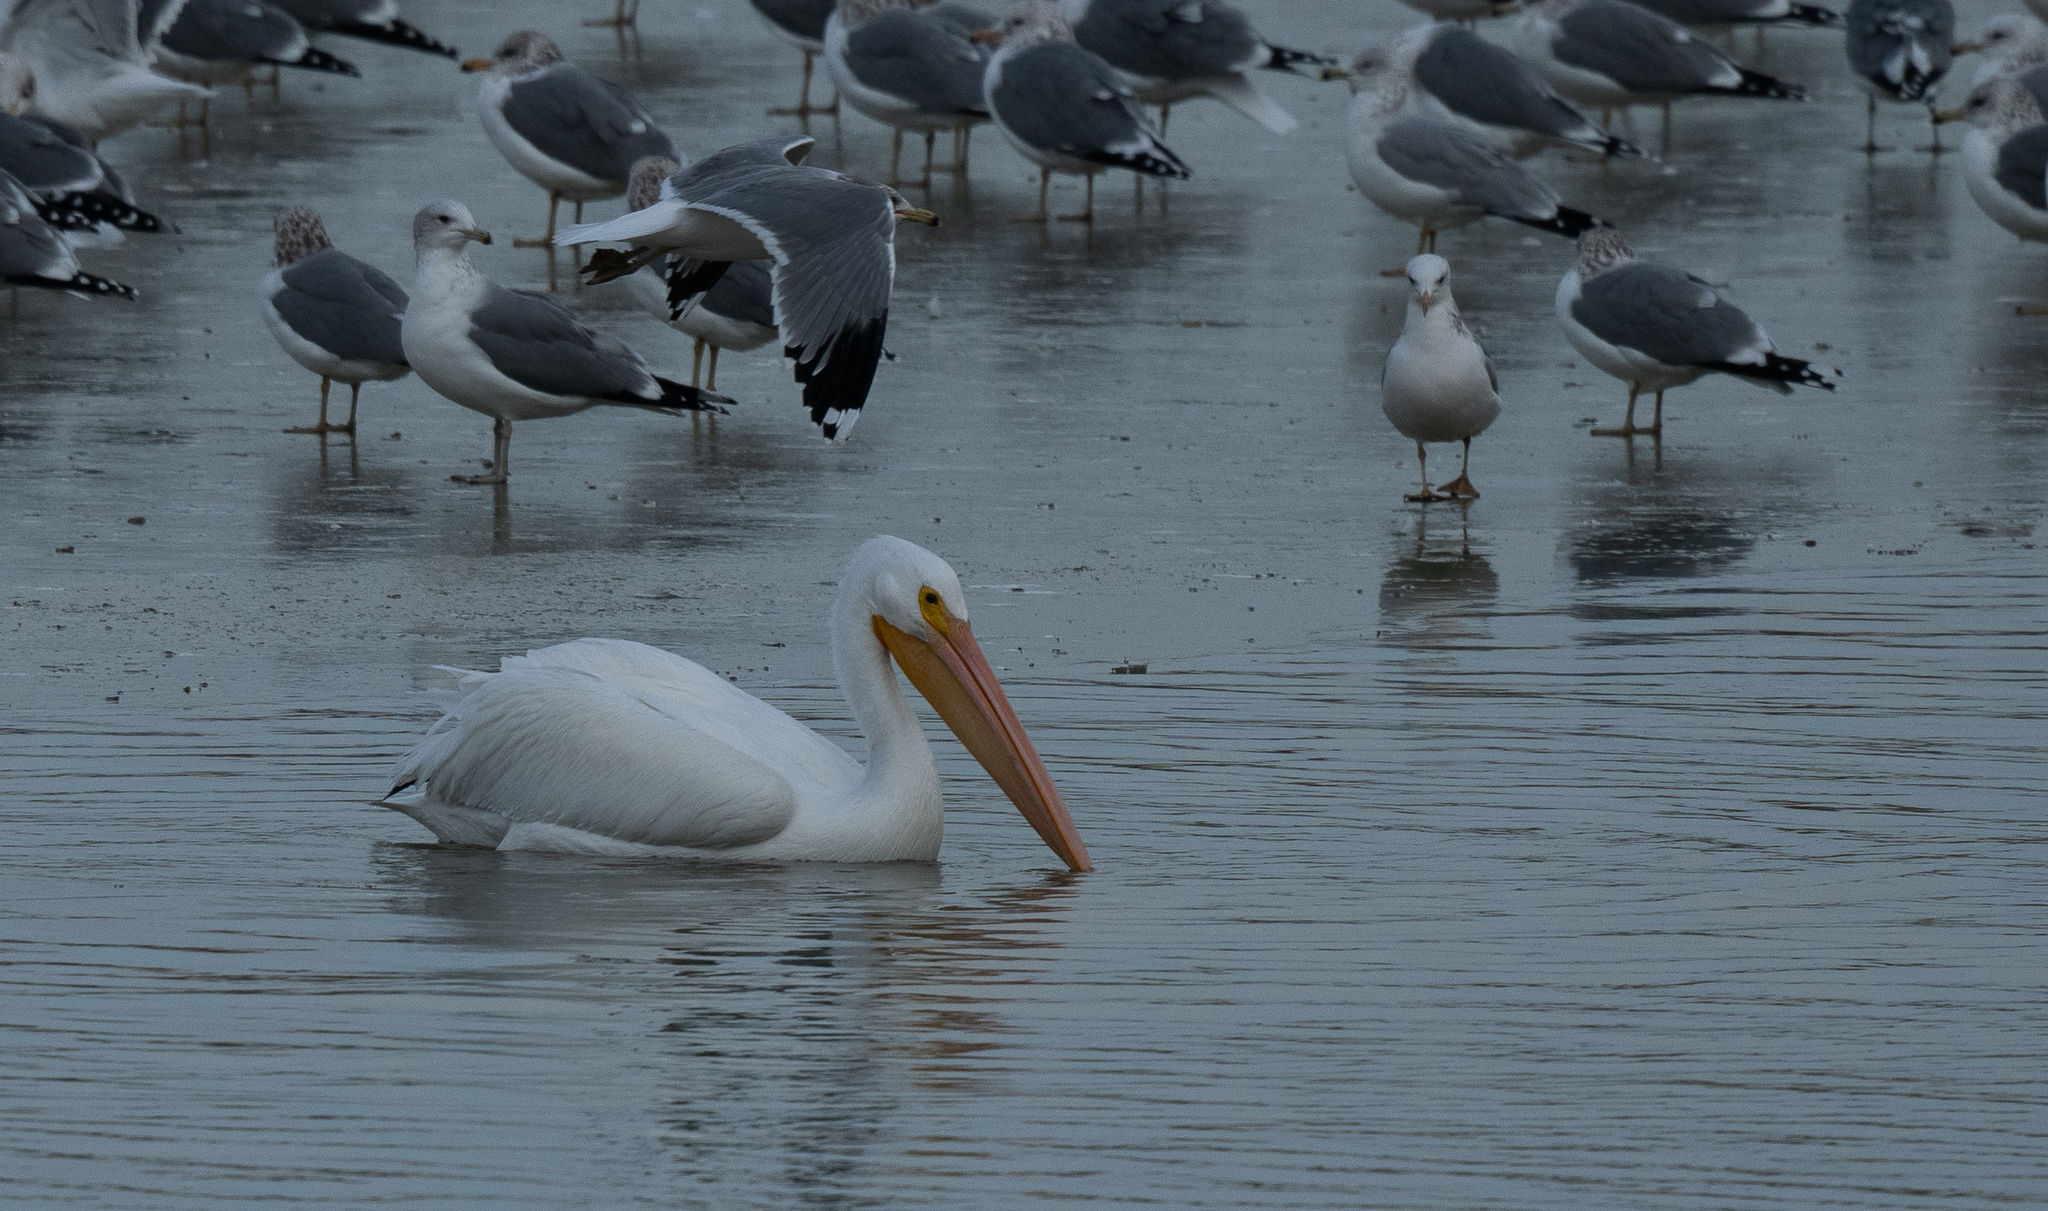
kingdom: Animalia
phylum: Chordata
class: Aves
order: Pelecaniformes
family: Pelecanidae
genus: Pelecanus
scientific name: Pelecanus erythrorhynchos
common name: American white pelican
